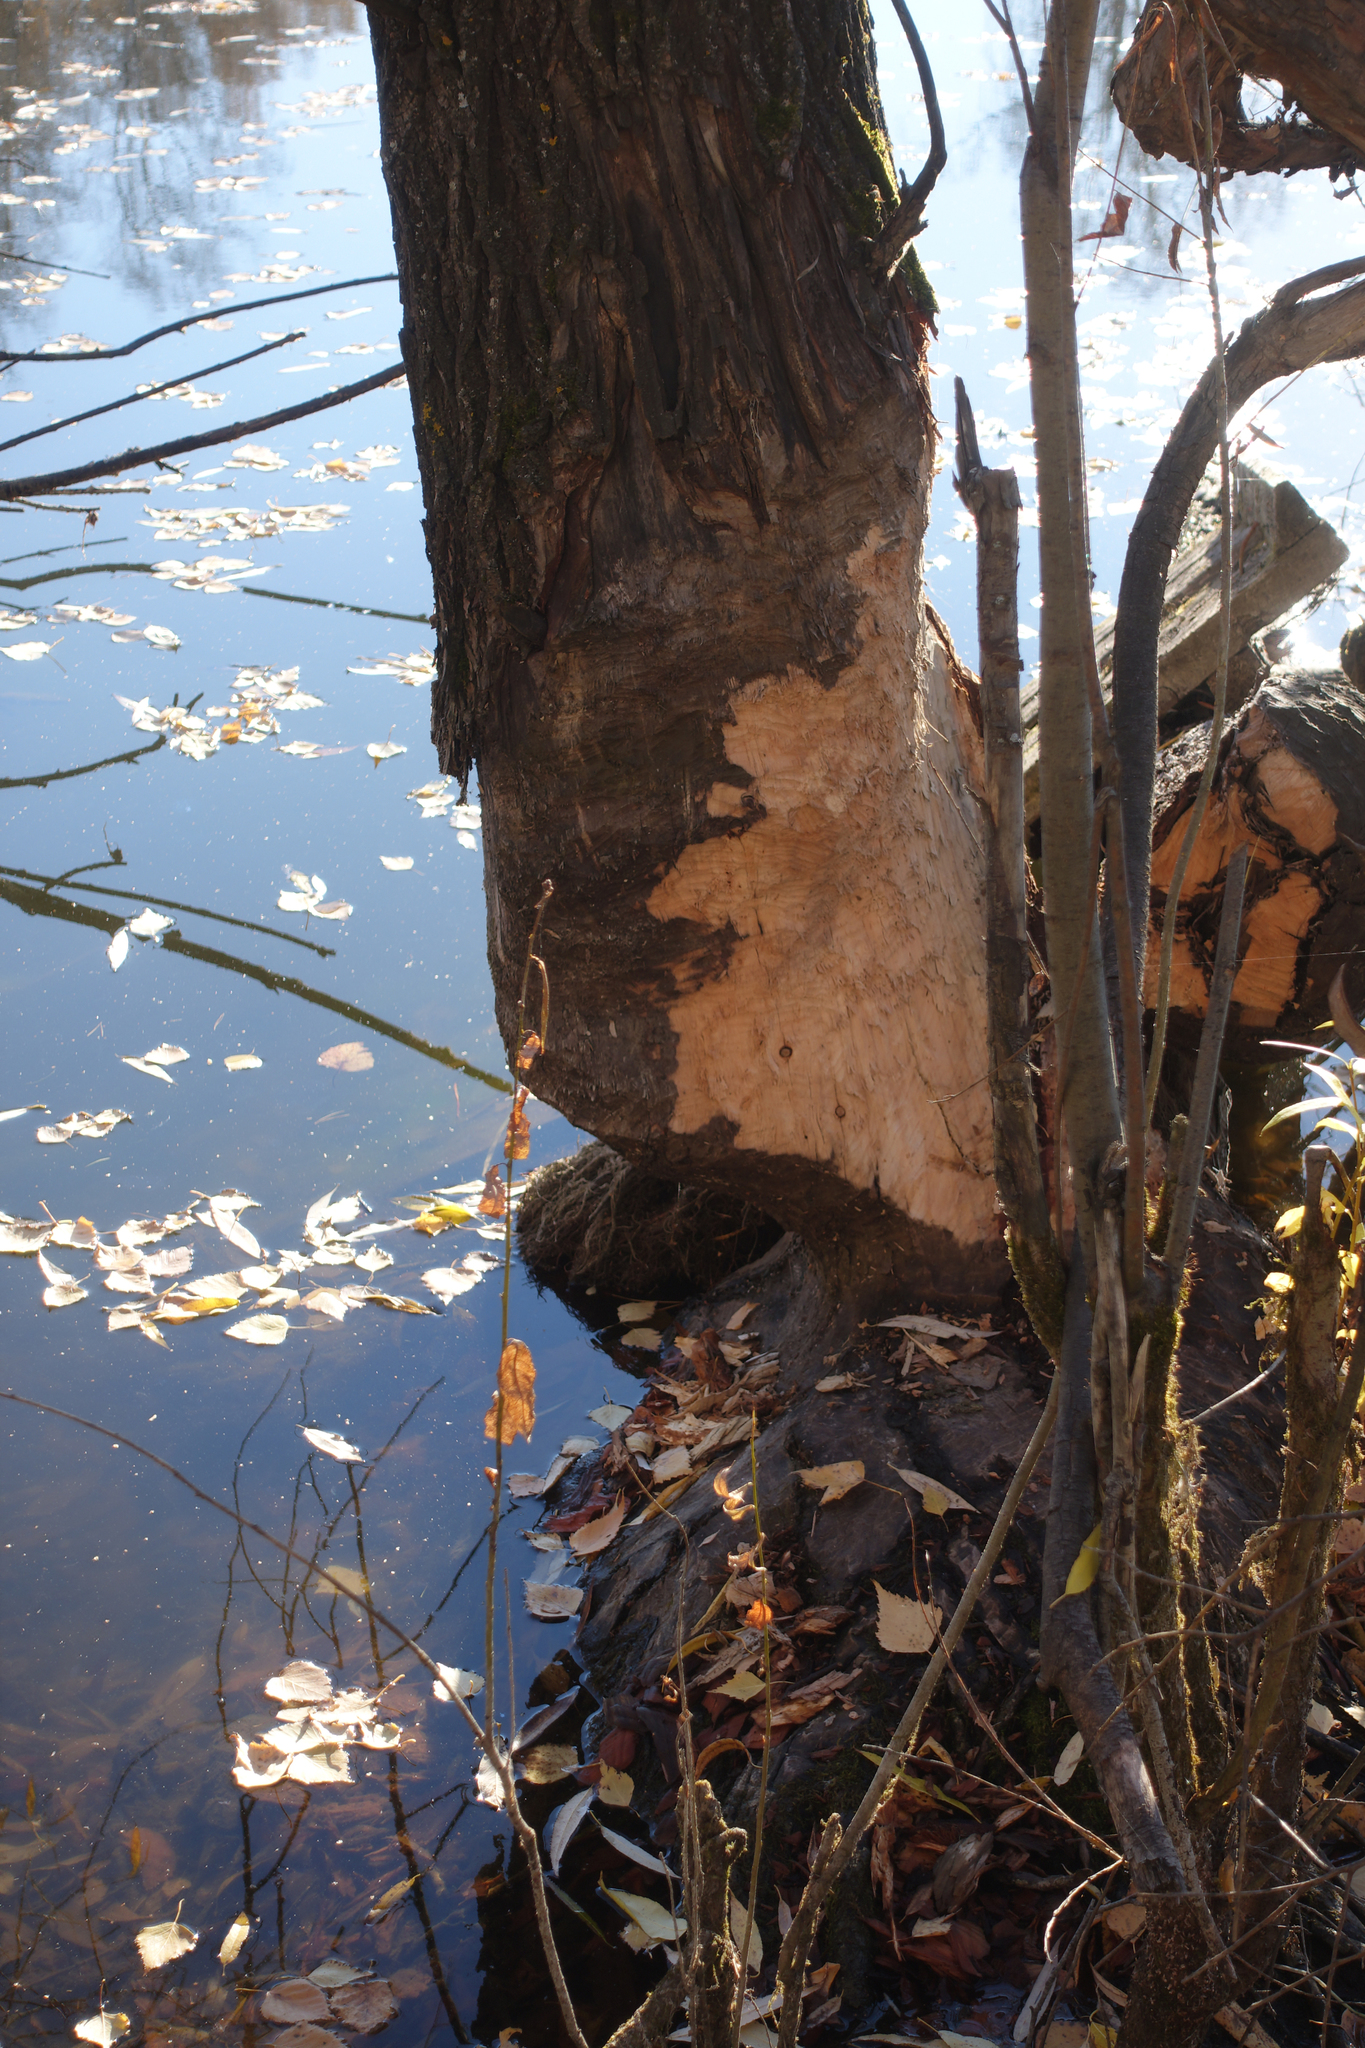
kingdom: Animalia
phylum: Chordata
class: Mammalia
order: Rodentia
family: Castoridae
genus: Castor
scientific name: Castor fiber
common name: Eurasian beaver
